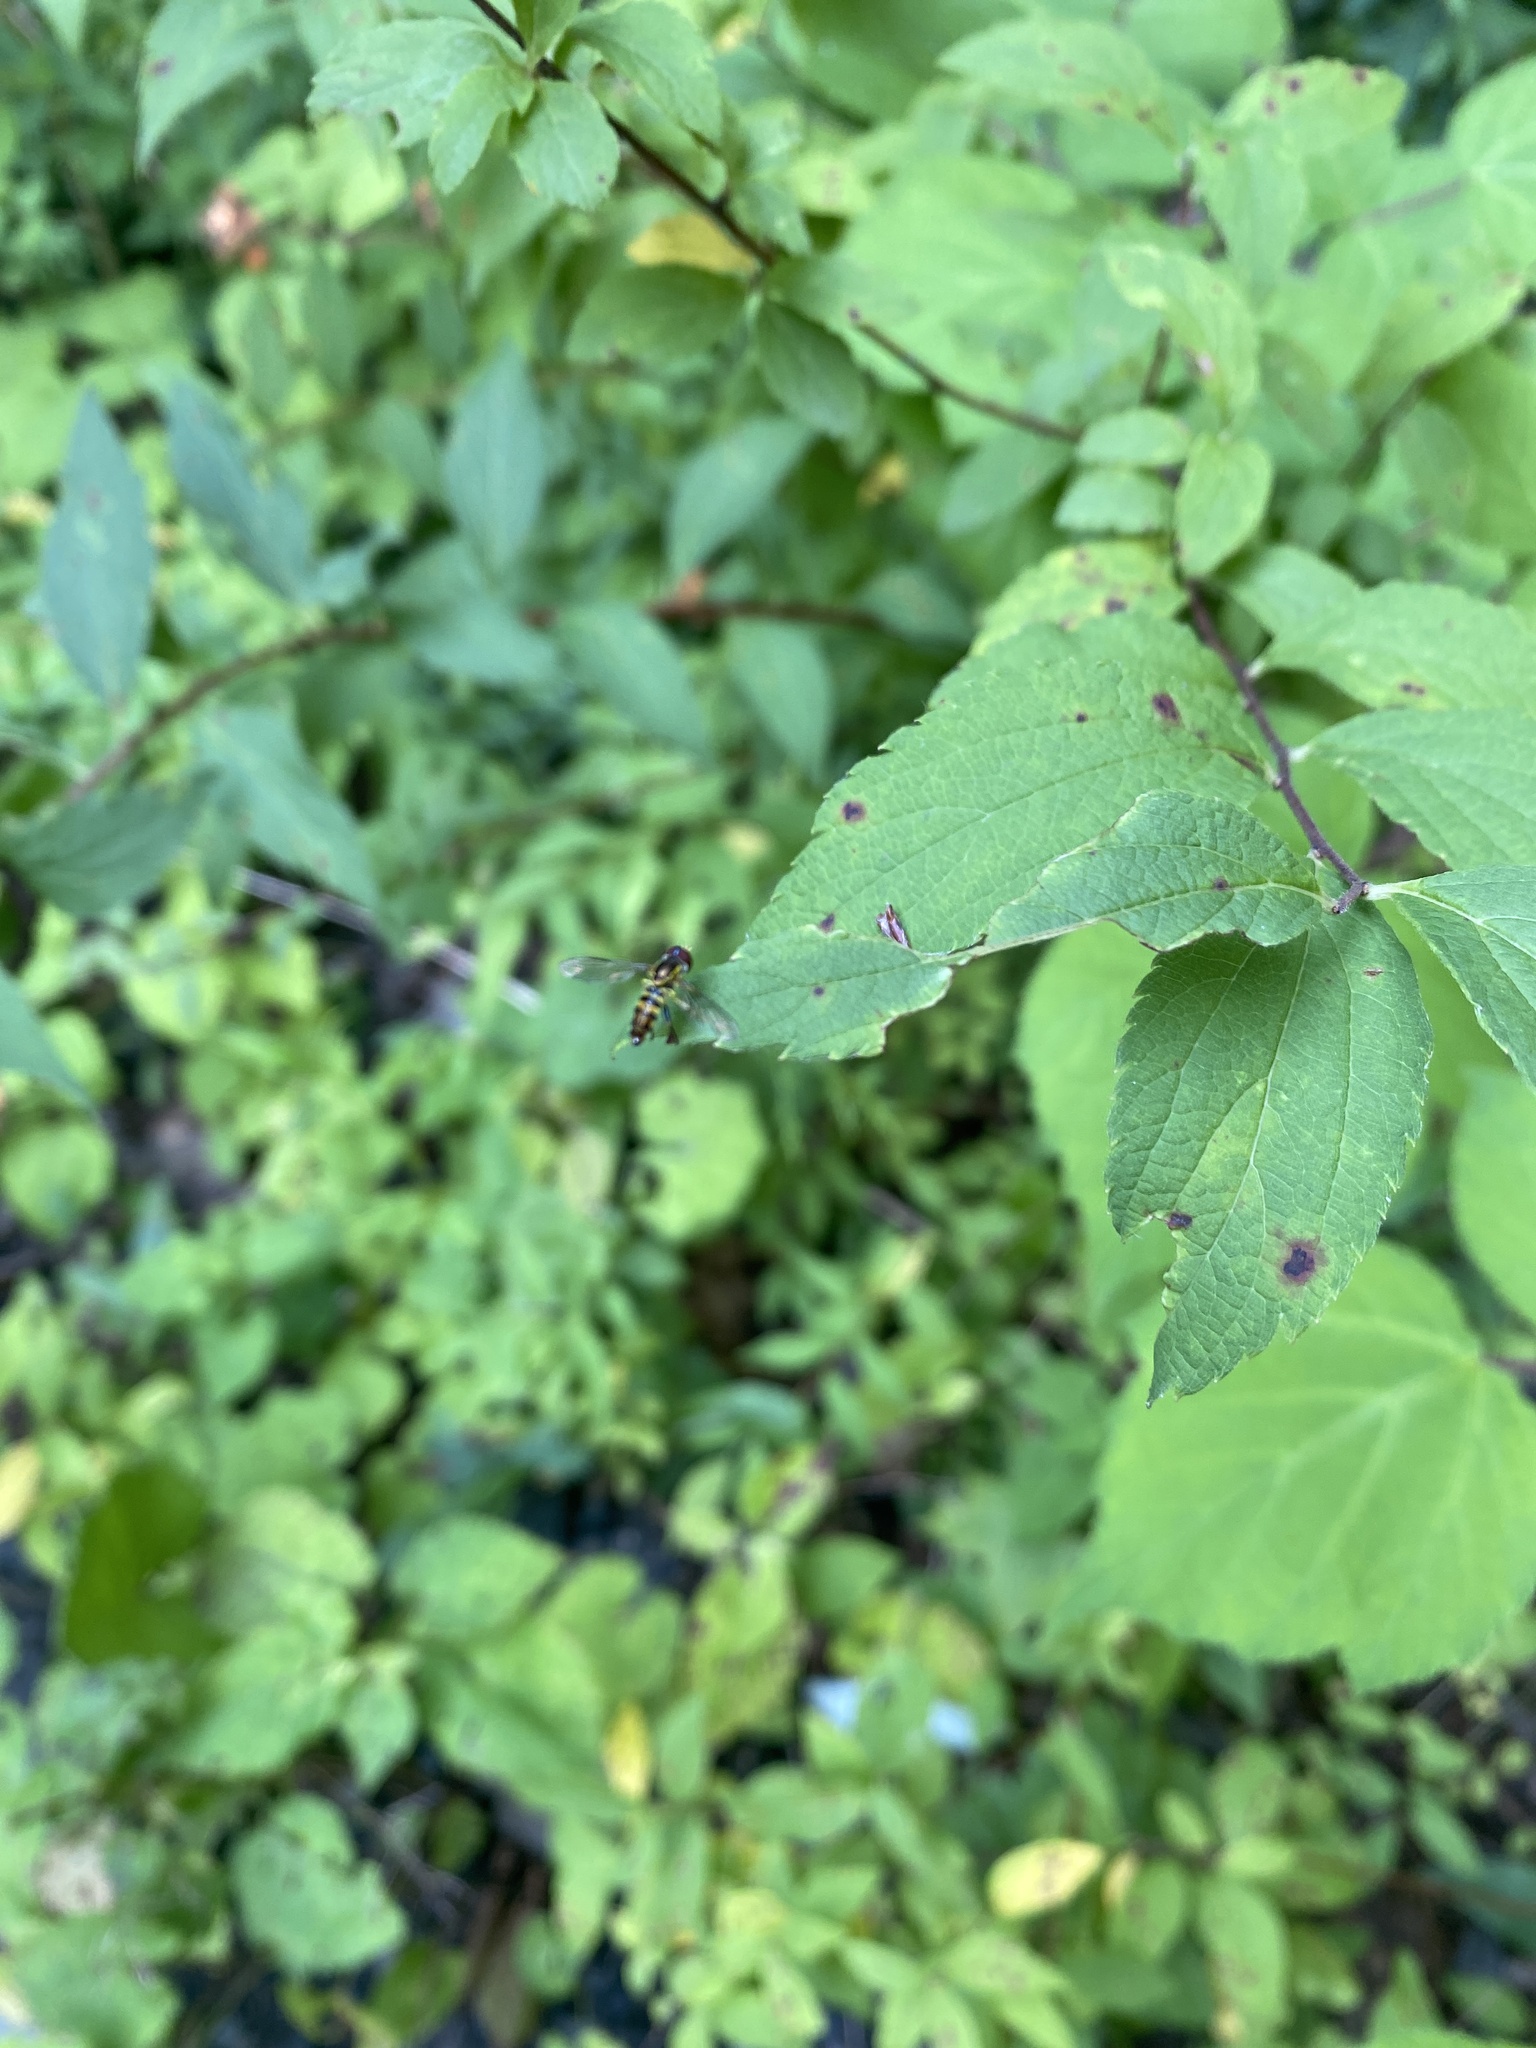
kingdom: Animalia
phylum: Arthropoda
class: Insecta
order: Diptera
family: Syrphidae
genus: Toxomerus
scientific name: Toxomerus geminatus
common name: Eastern calligrapher
